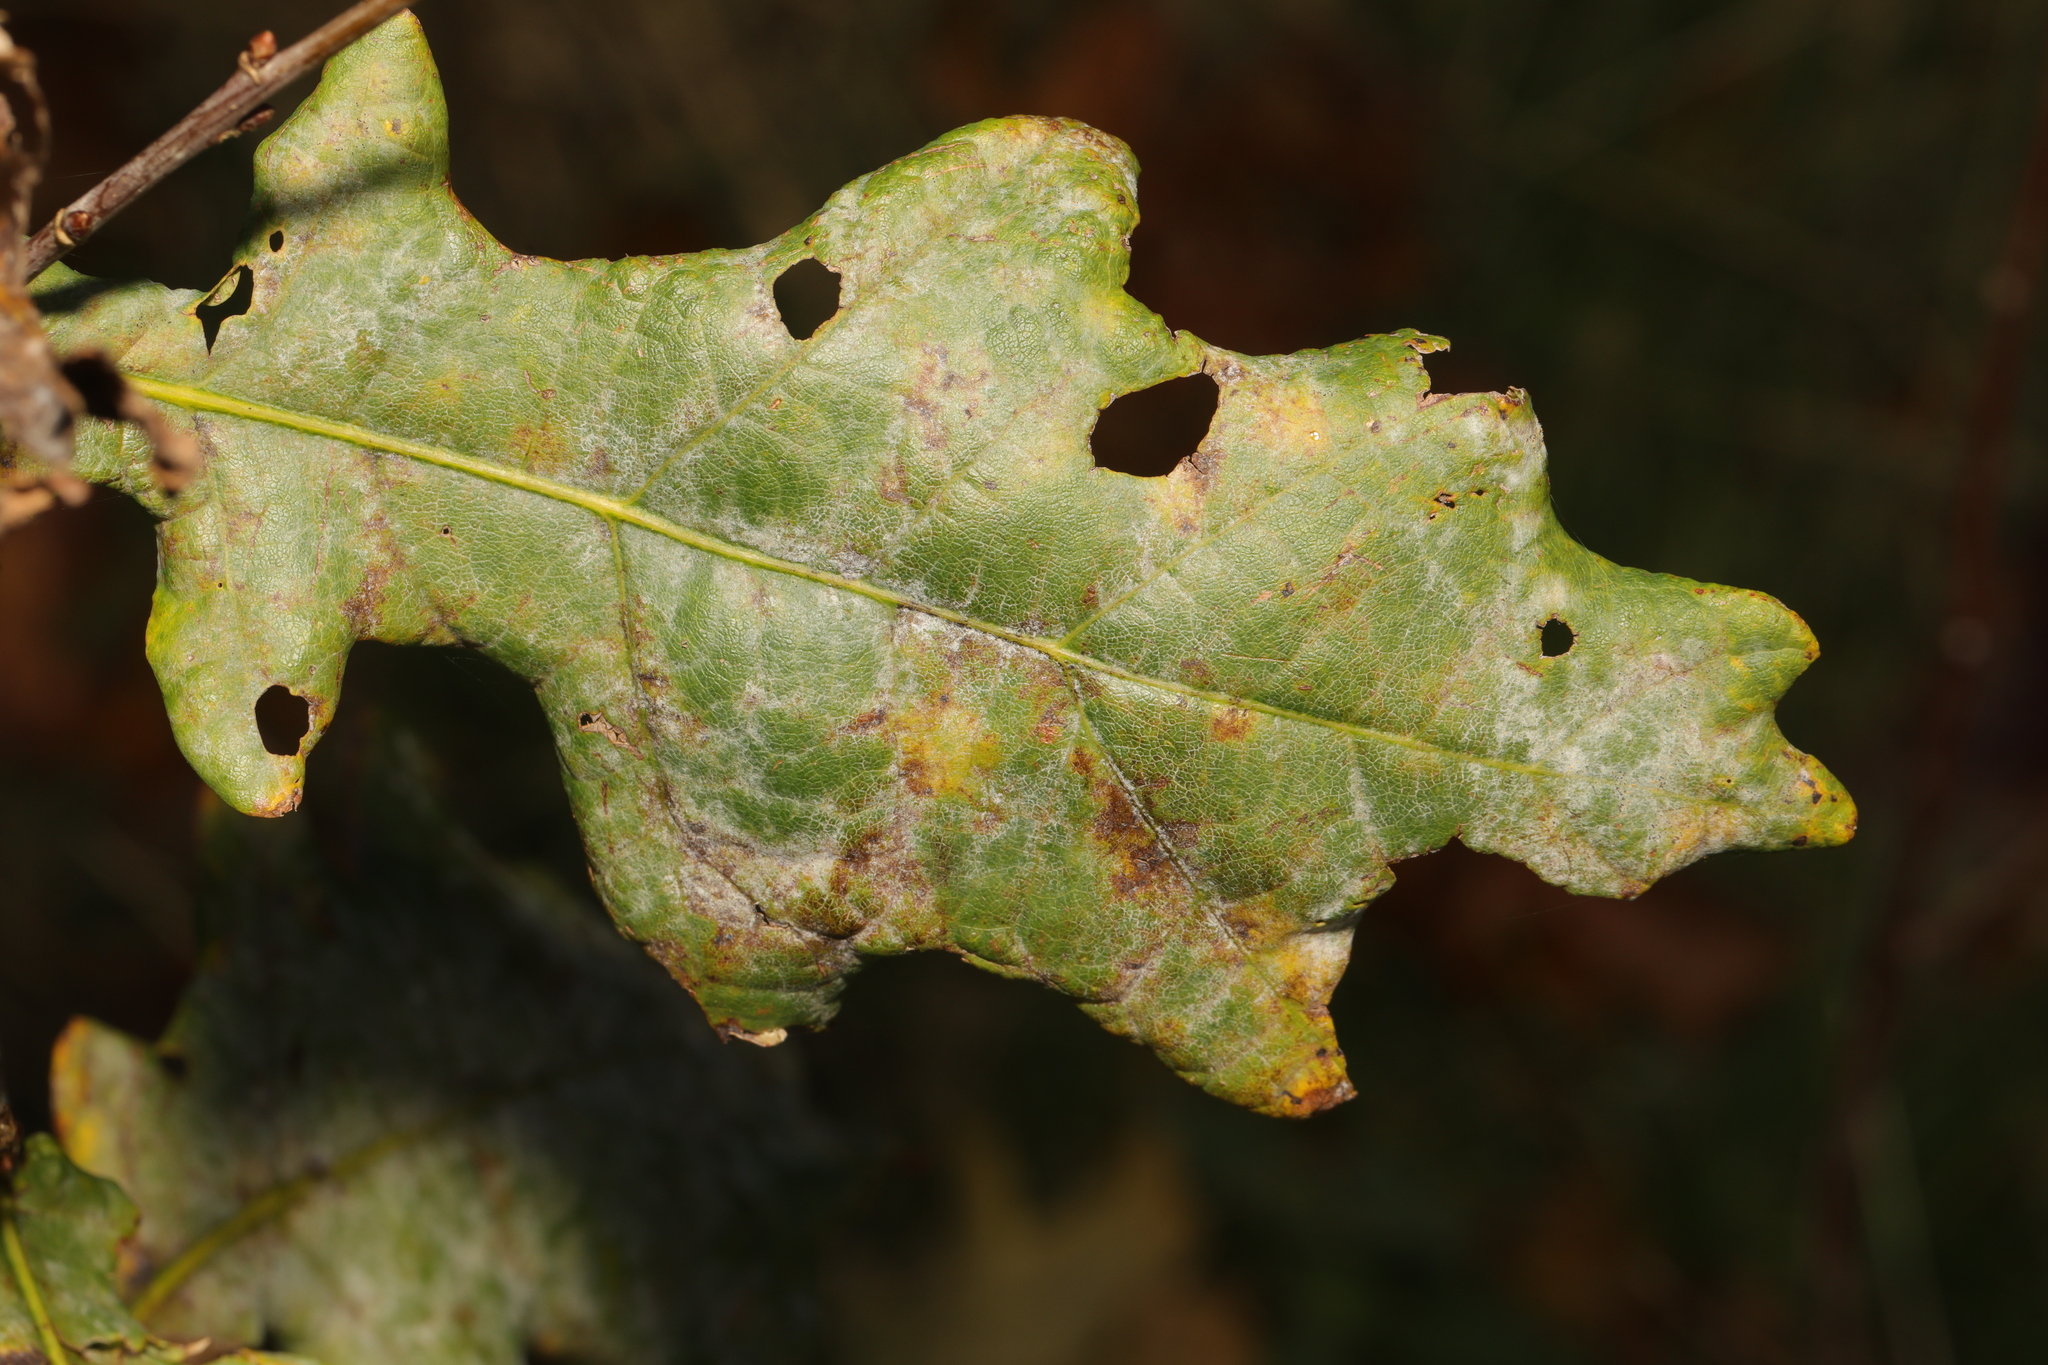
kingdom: Fungi
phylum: Ascomycota
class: Leotiomycetes
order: Helotiales
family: Erysiphaceae
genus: Erysiphe
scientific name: Erysiphe alphitoides
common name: Oak mildew
